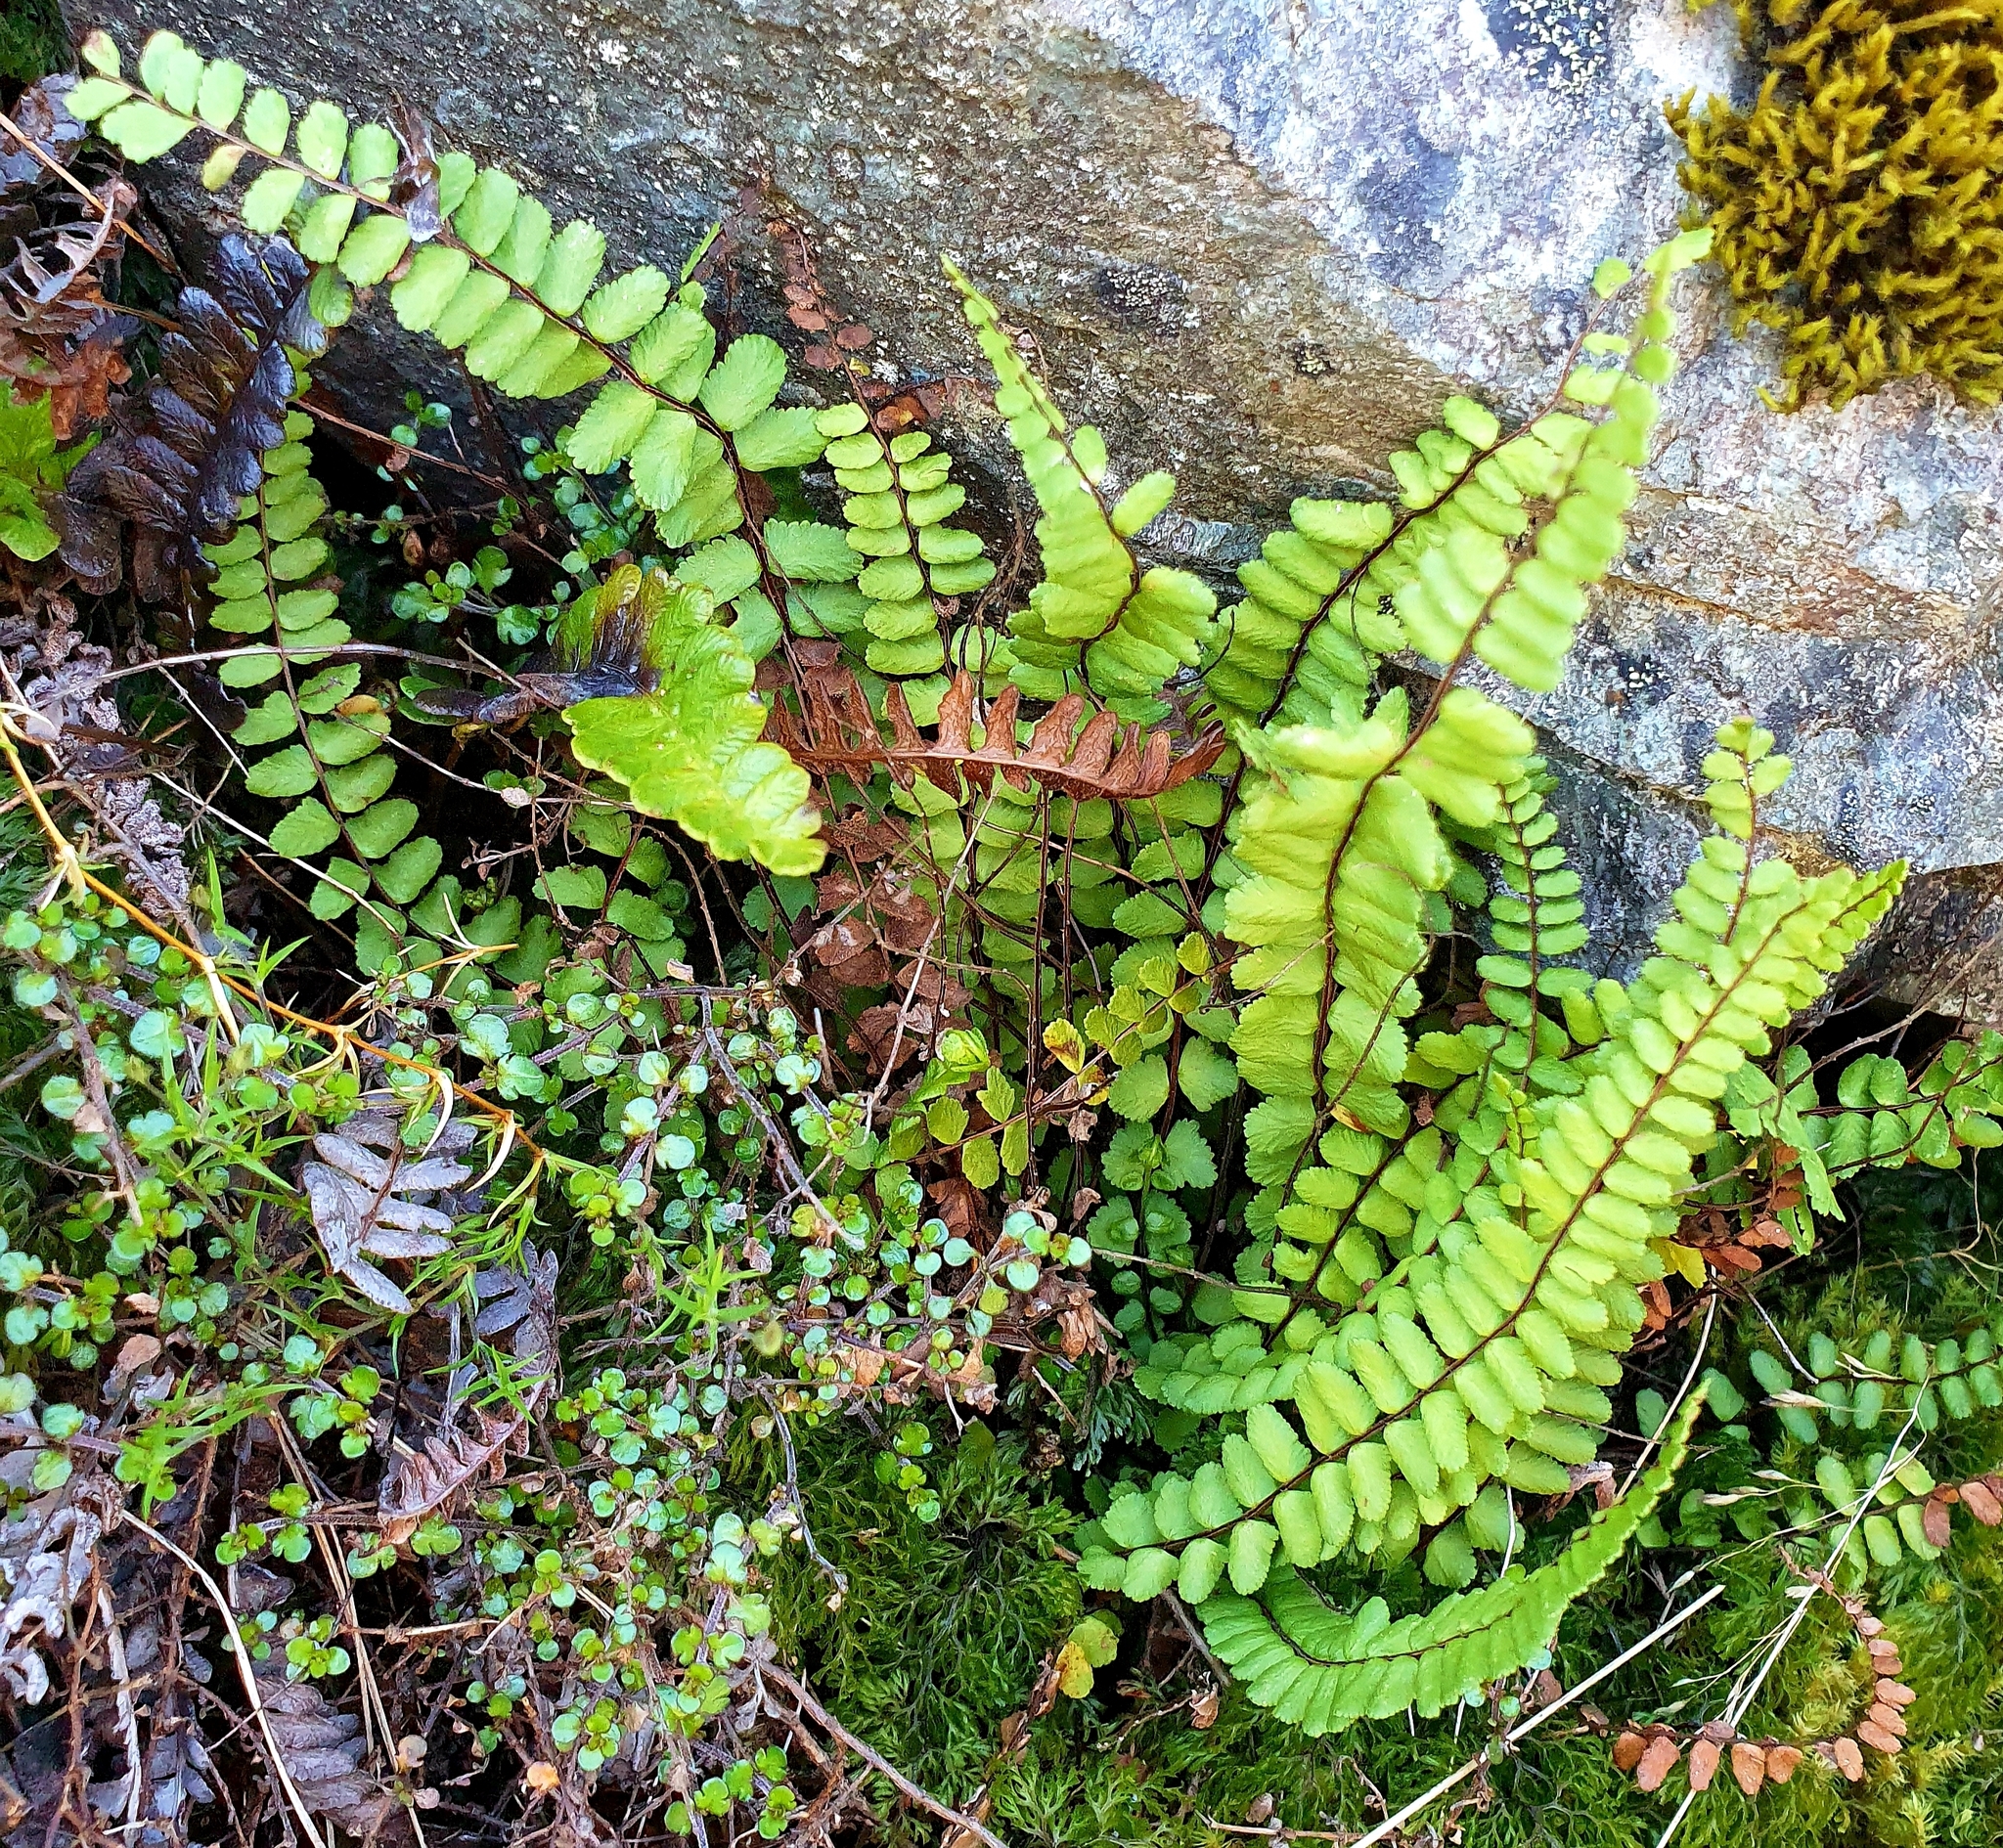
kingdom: Plantae
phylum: Tracheophyta
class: Polypodiopsida
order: Polypodiales
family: Aspleniaceae
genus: Asplenium
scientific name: Asplenium trichomanes
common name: Maidenhair spleenwort
